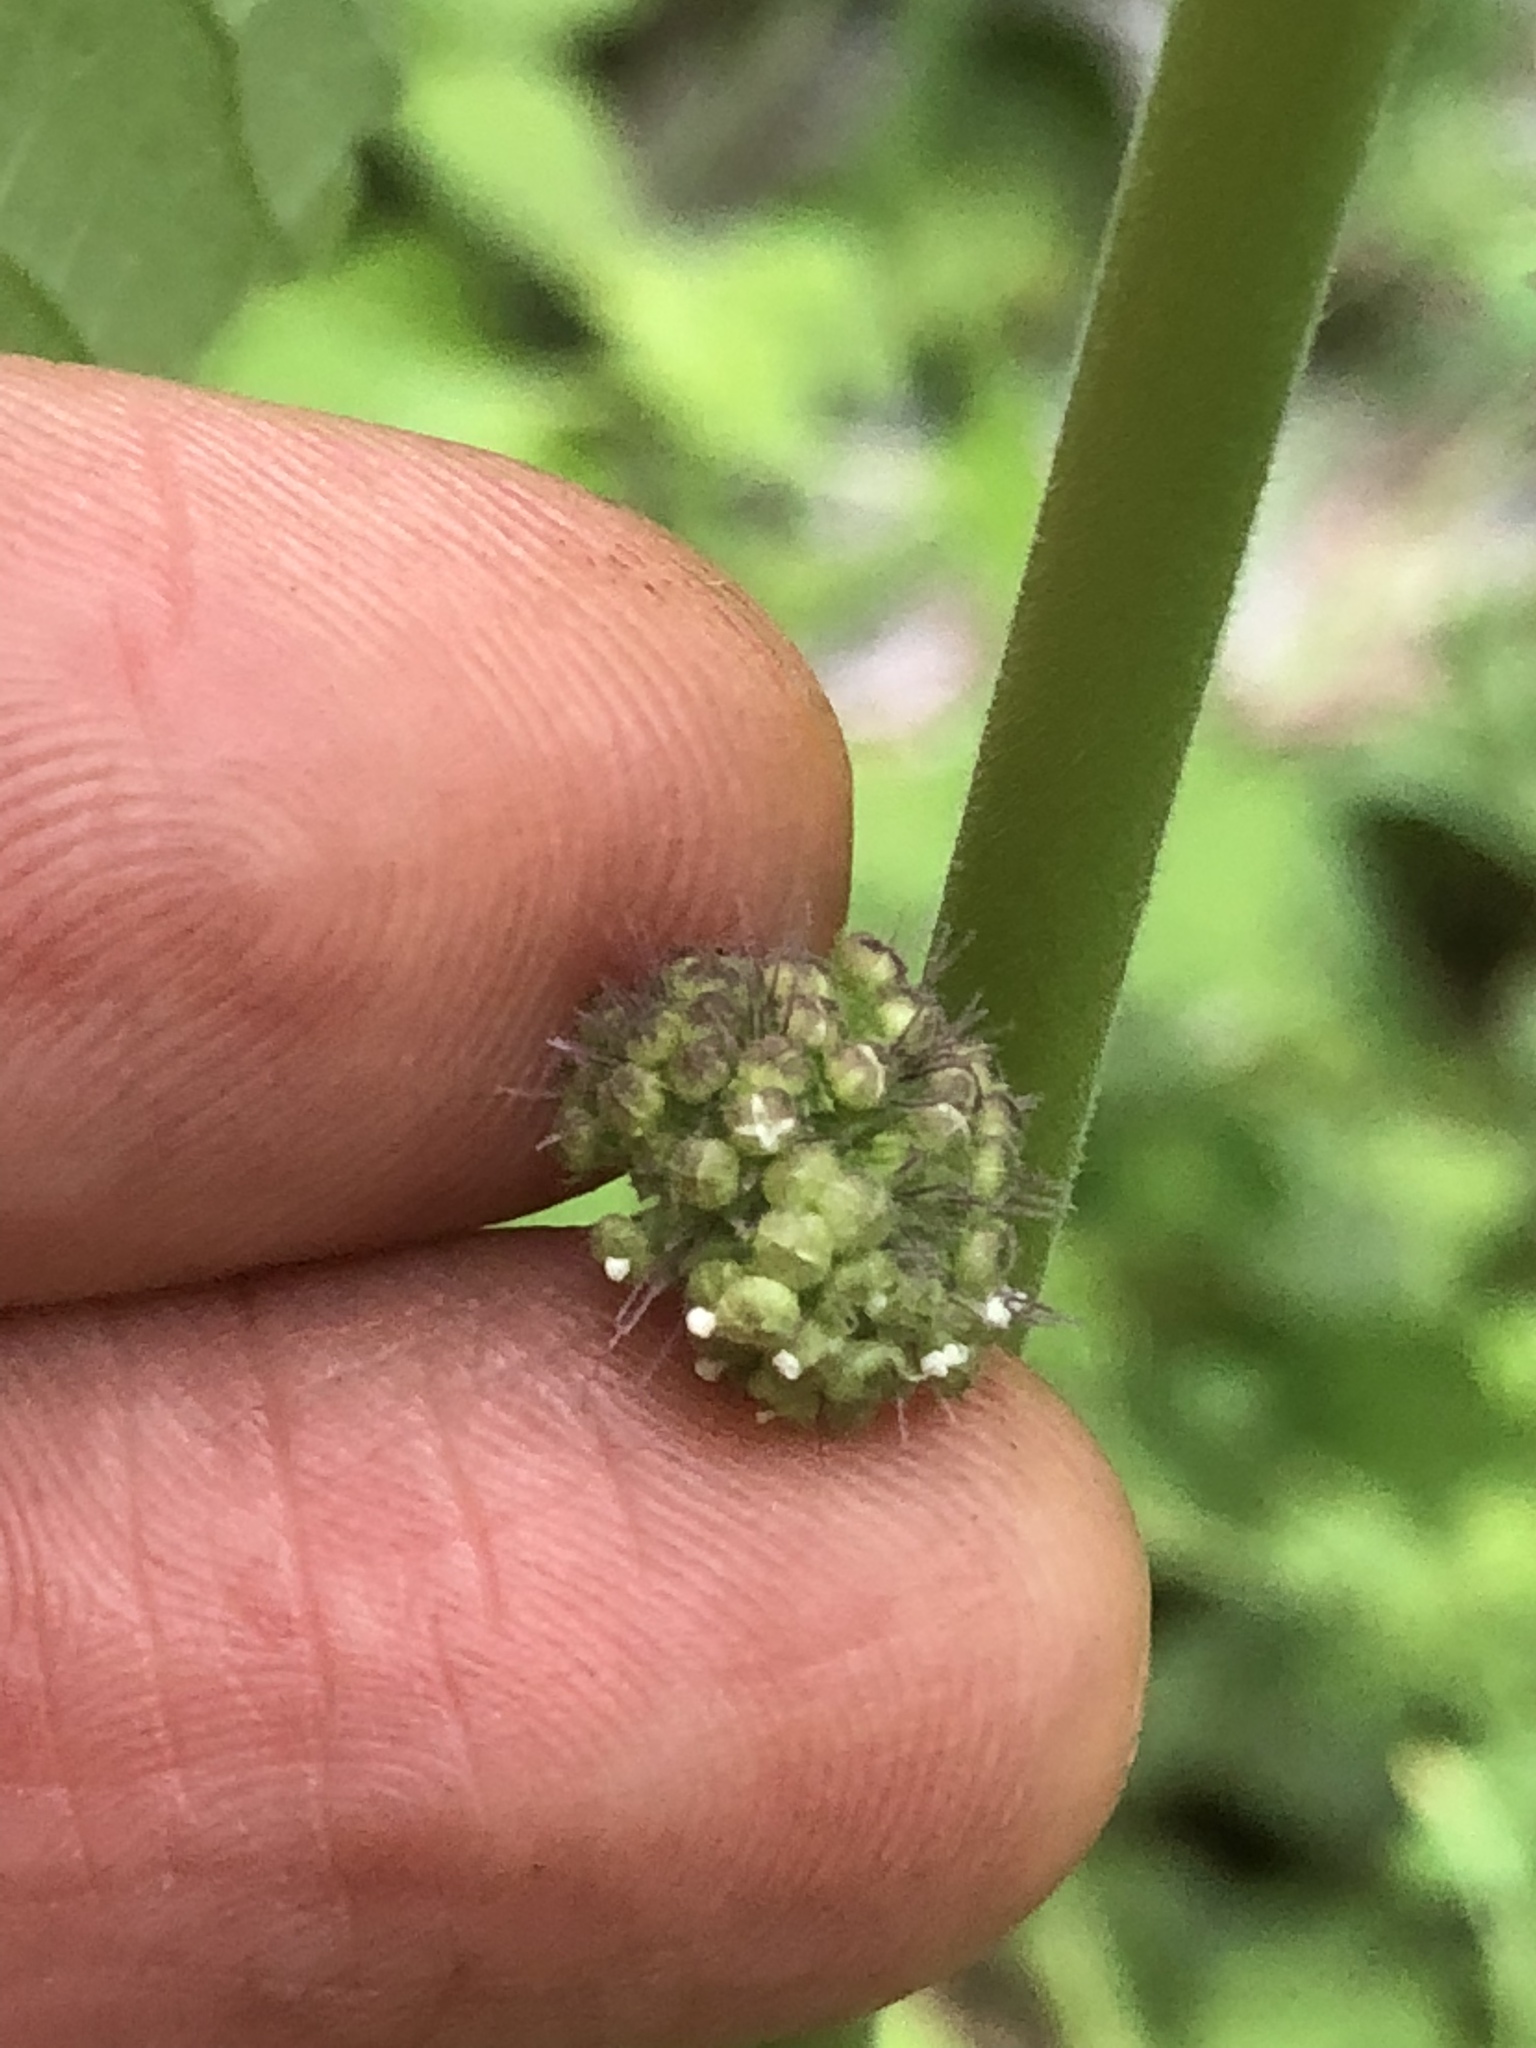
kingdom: Plantae
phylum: Tracheophyta
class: Magnoliopsida
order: Rosales
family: Moraceae
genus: Fatoua
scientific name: Fatoua villosa
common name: Hairy crabweed
